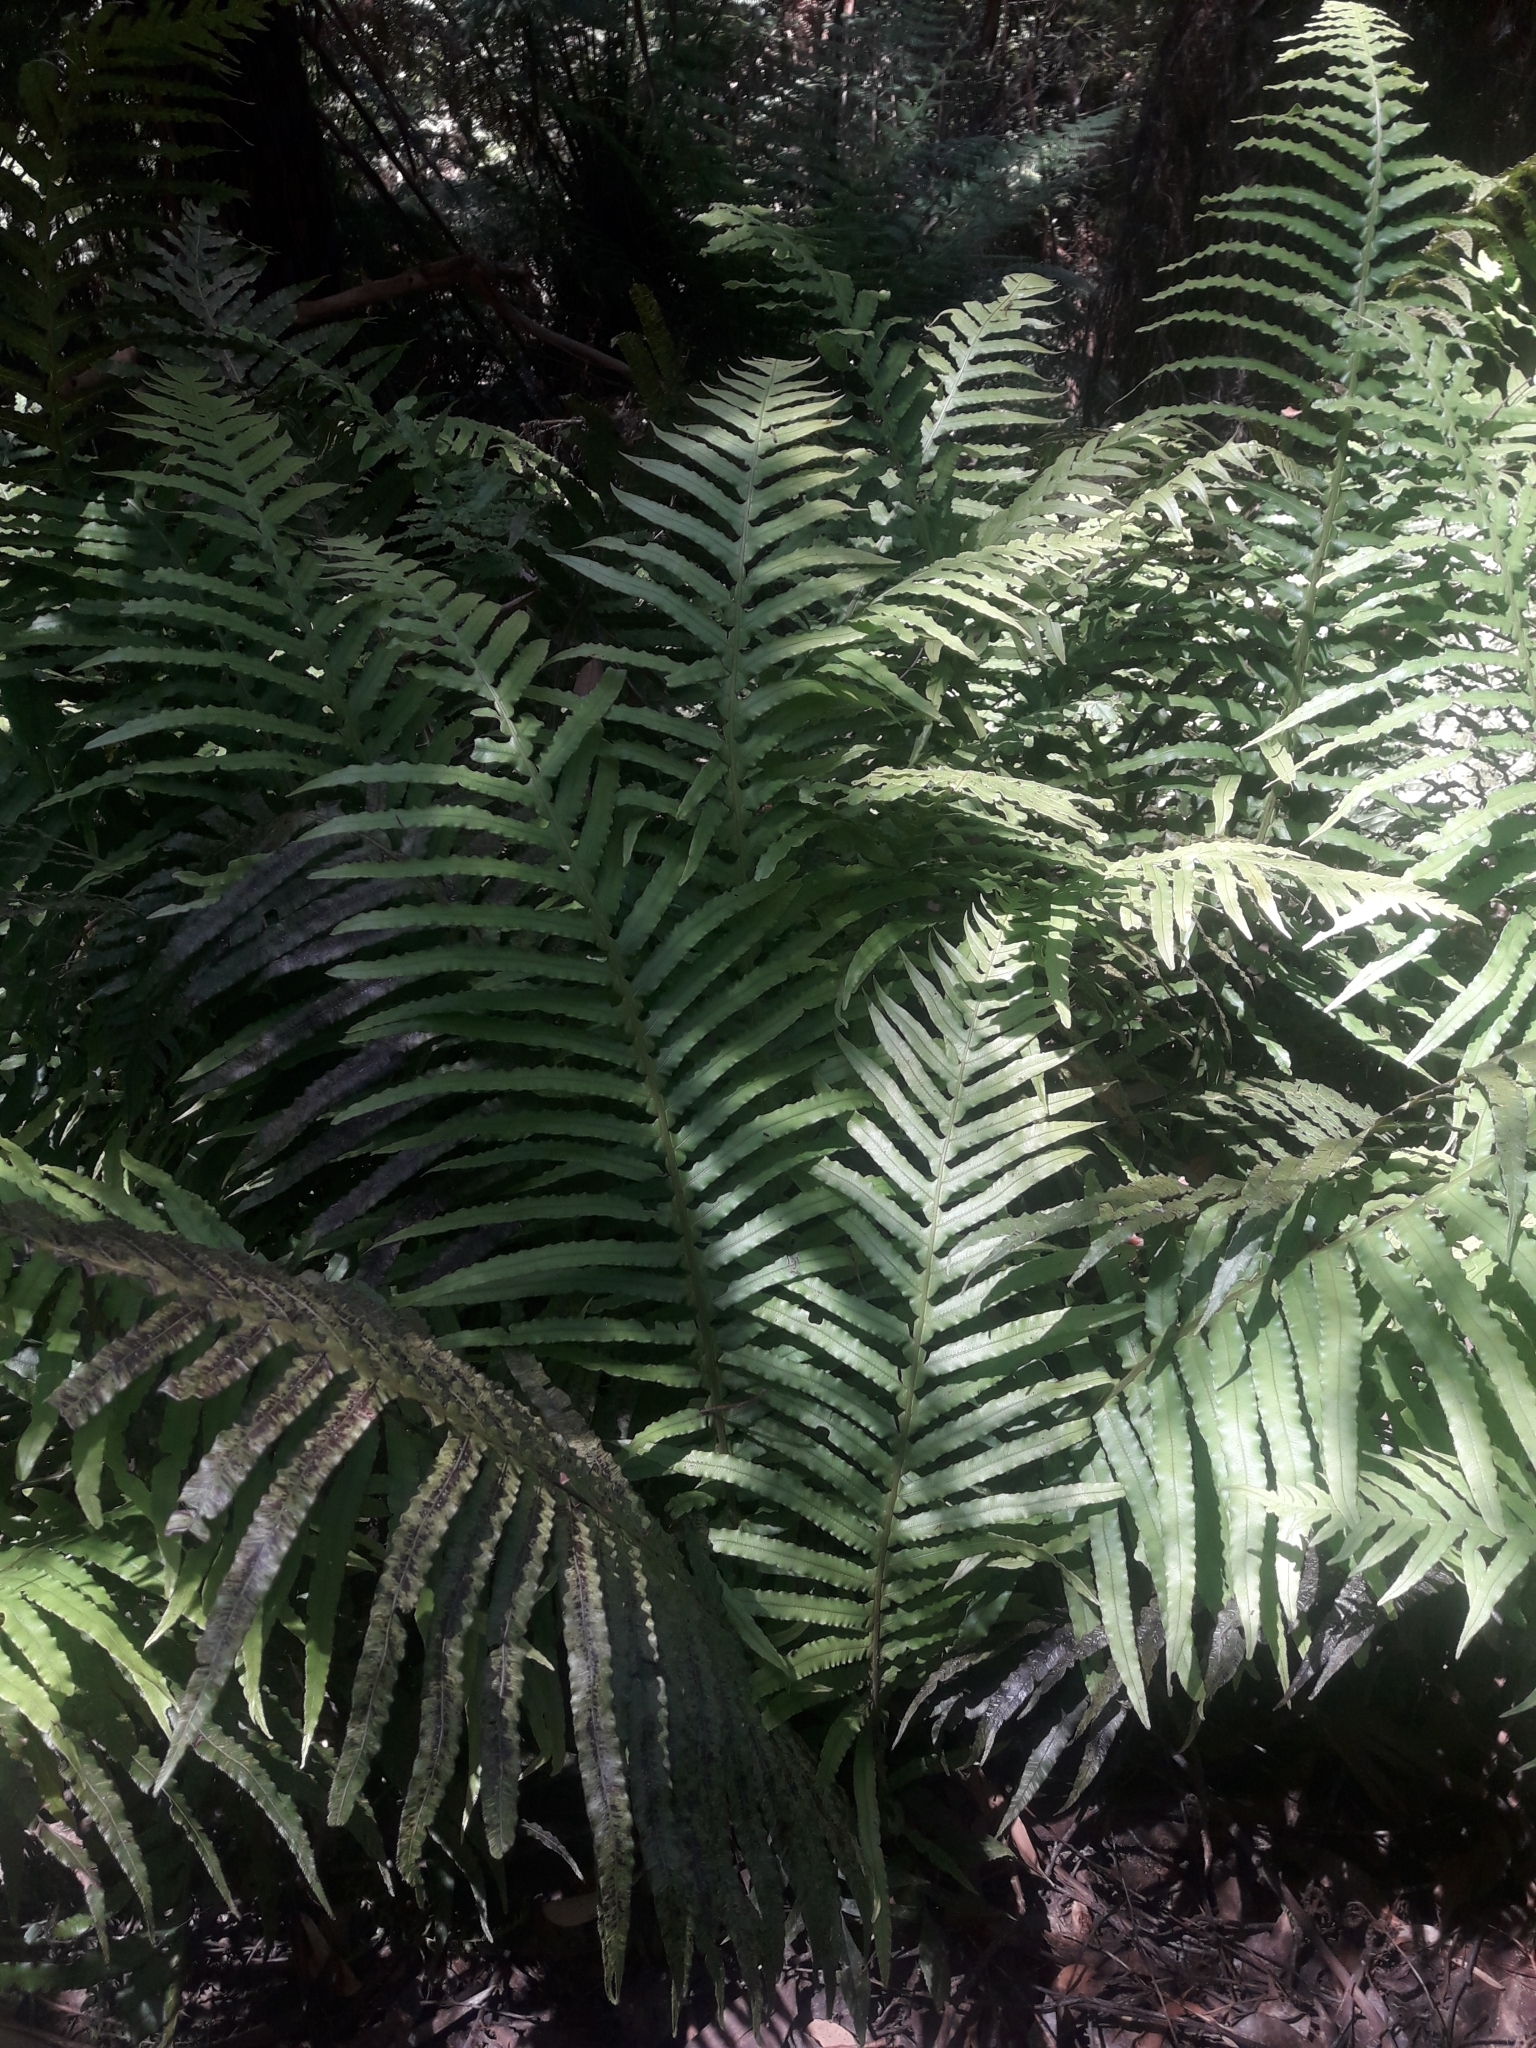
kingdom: Plantae
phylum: Tracheophyta
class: Polypodiopsida
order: Polypodiales
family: Blechnaceae
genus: Oceaniopteris
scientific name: Oceaniopteris cartilaginea
